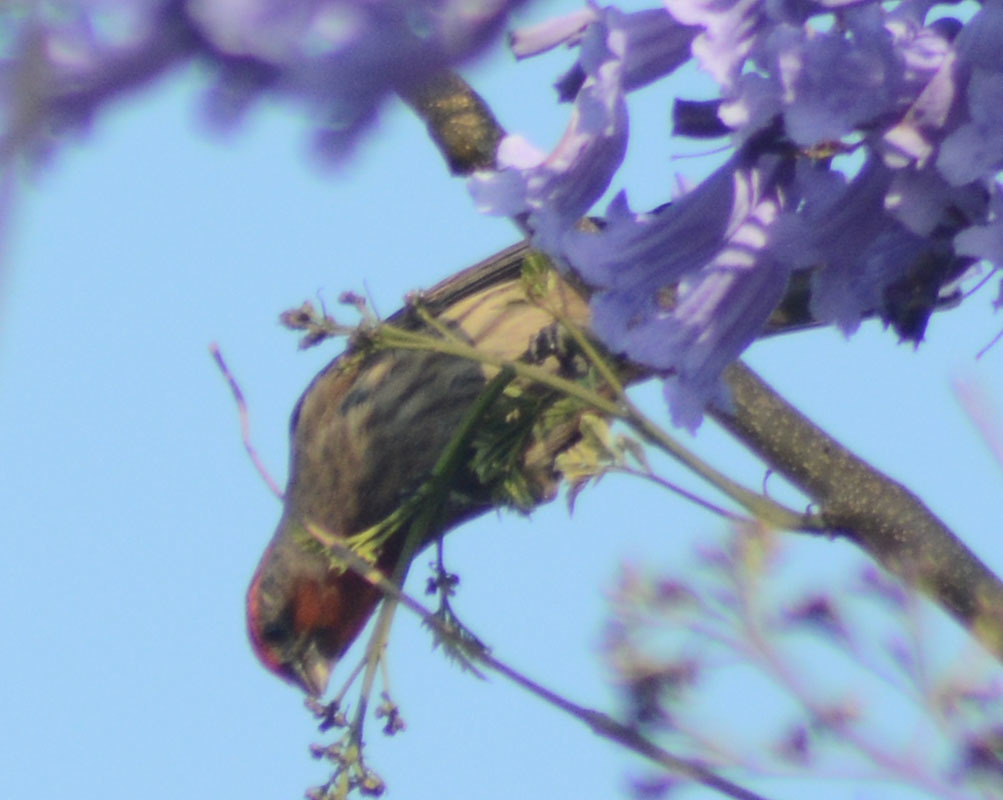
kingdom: Animalia
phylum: Chordata
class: Aves
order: Passeriformes
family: Fringillidae
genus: Haemorhous
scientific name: Haemorhous mexicanus
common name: House finch
